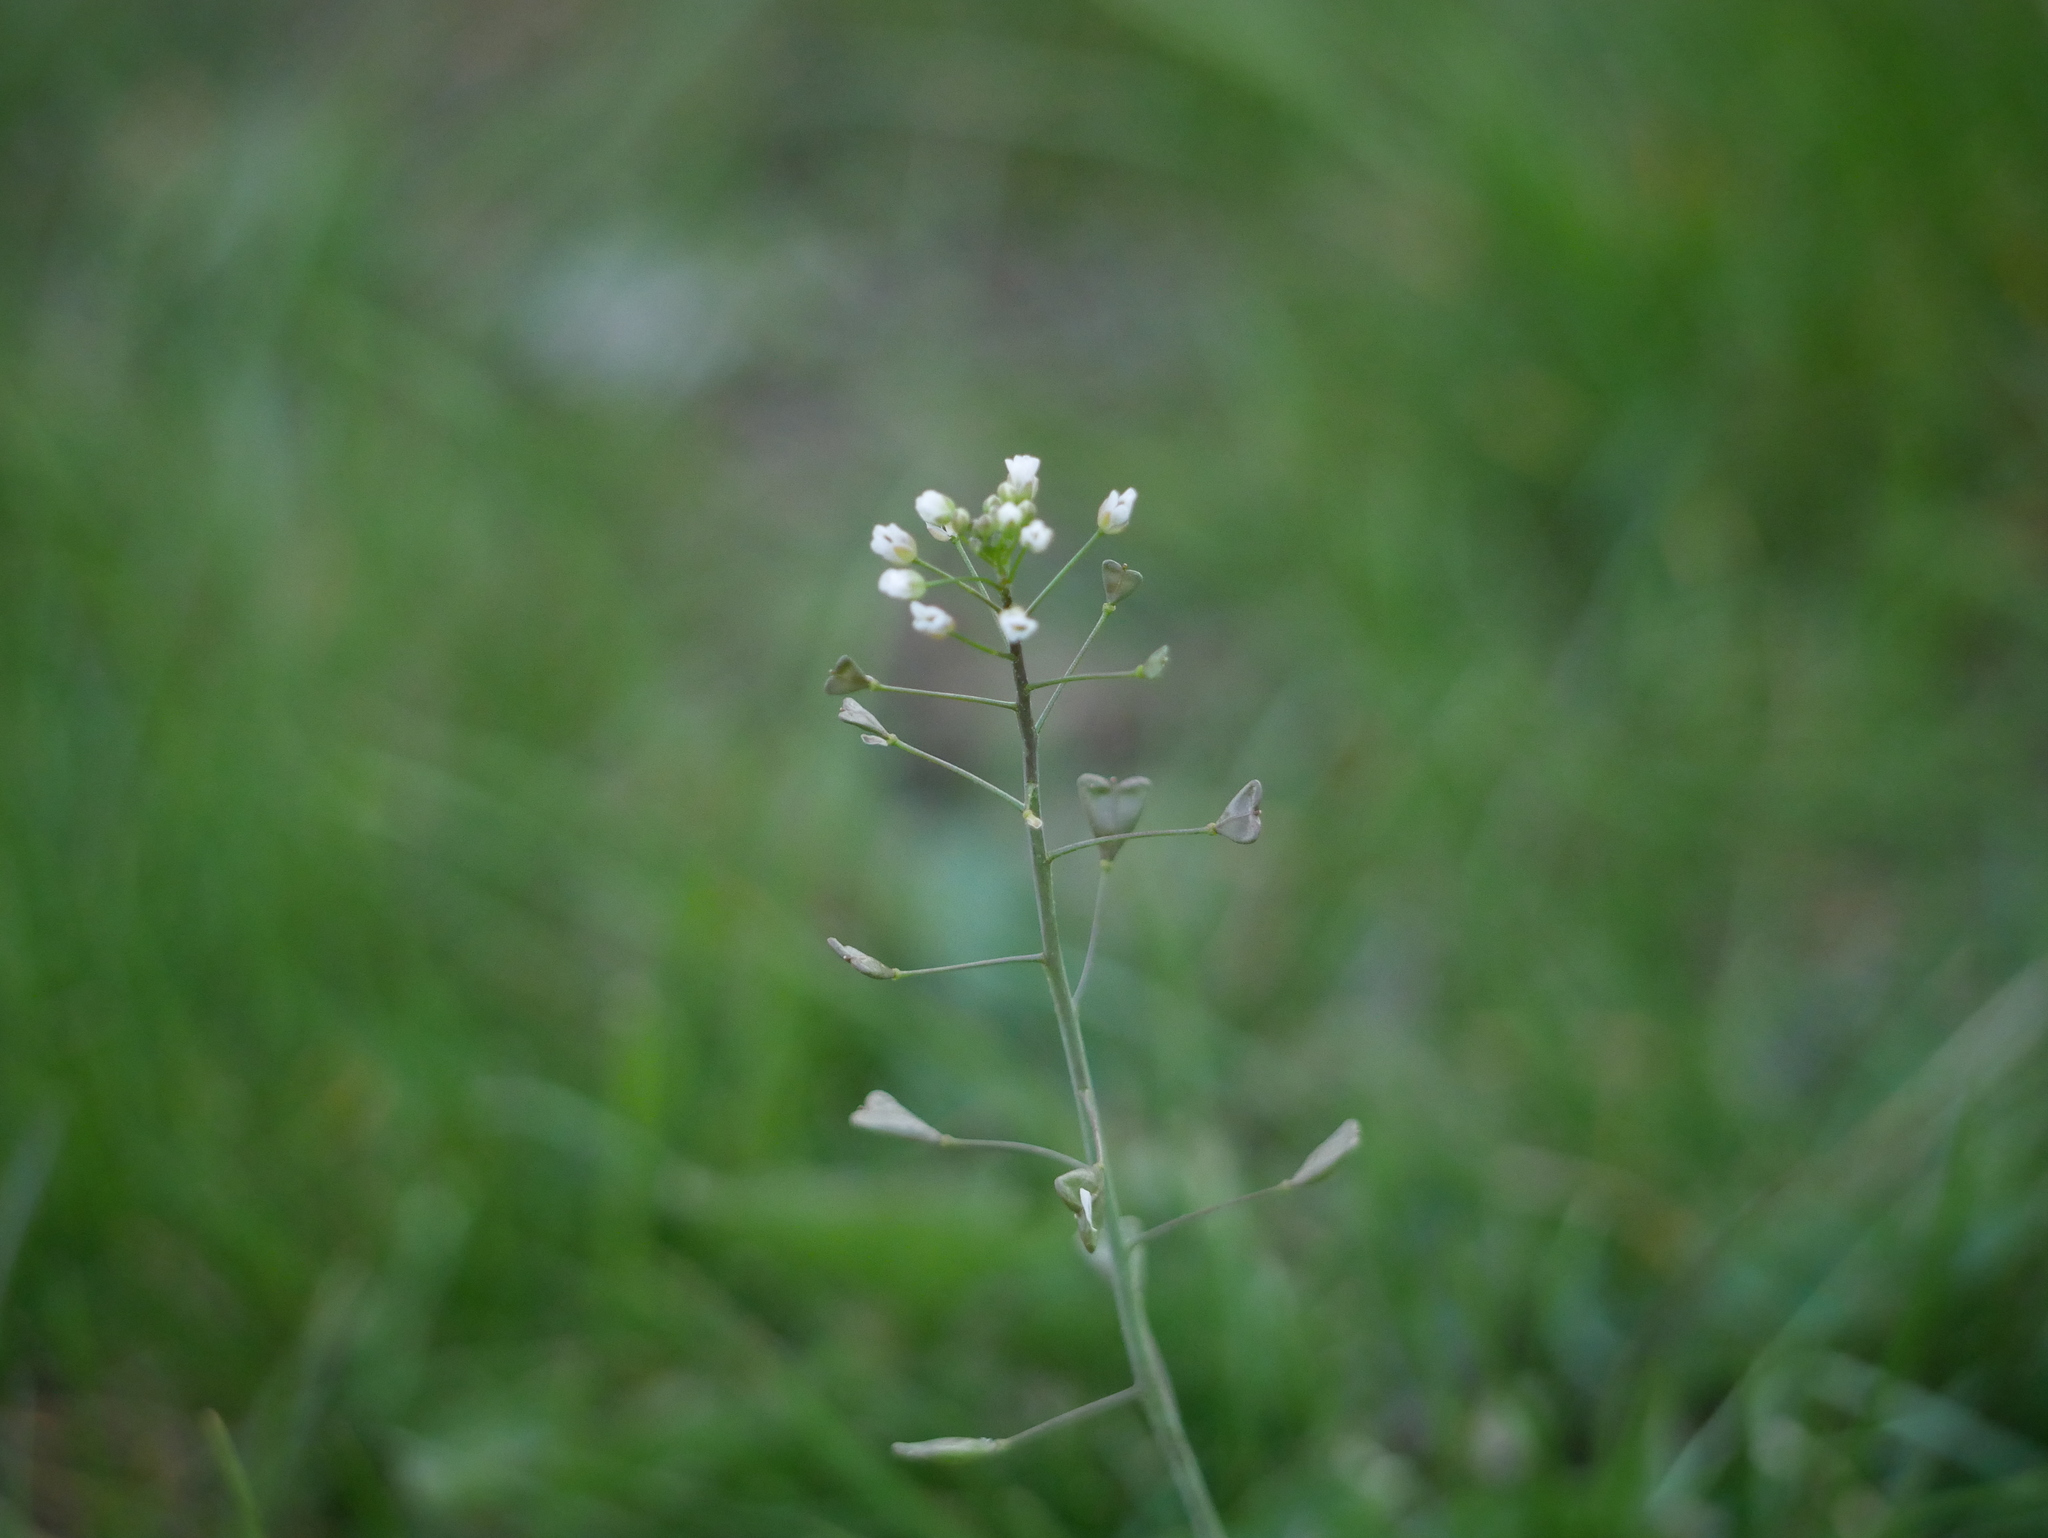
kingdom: Plantae
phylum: Tracheophyta
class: Magnoliopsida
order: Brassicales
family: Brassicaceae
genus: Capsella
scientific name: Capsella bursa-pastoris
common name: Shepherd's purse
